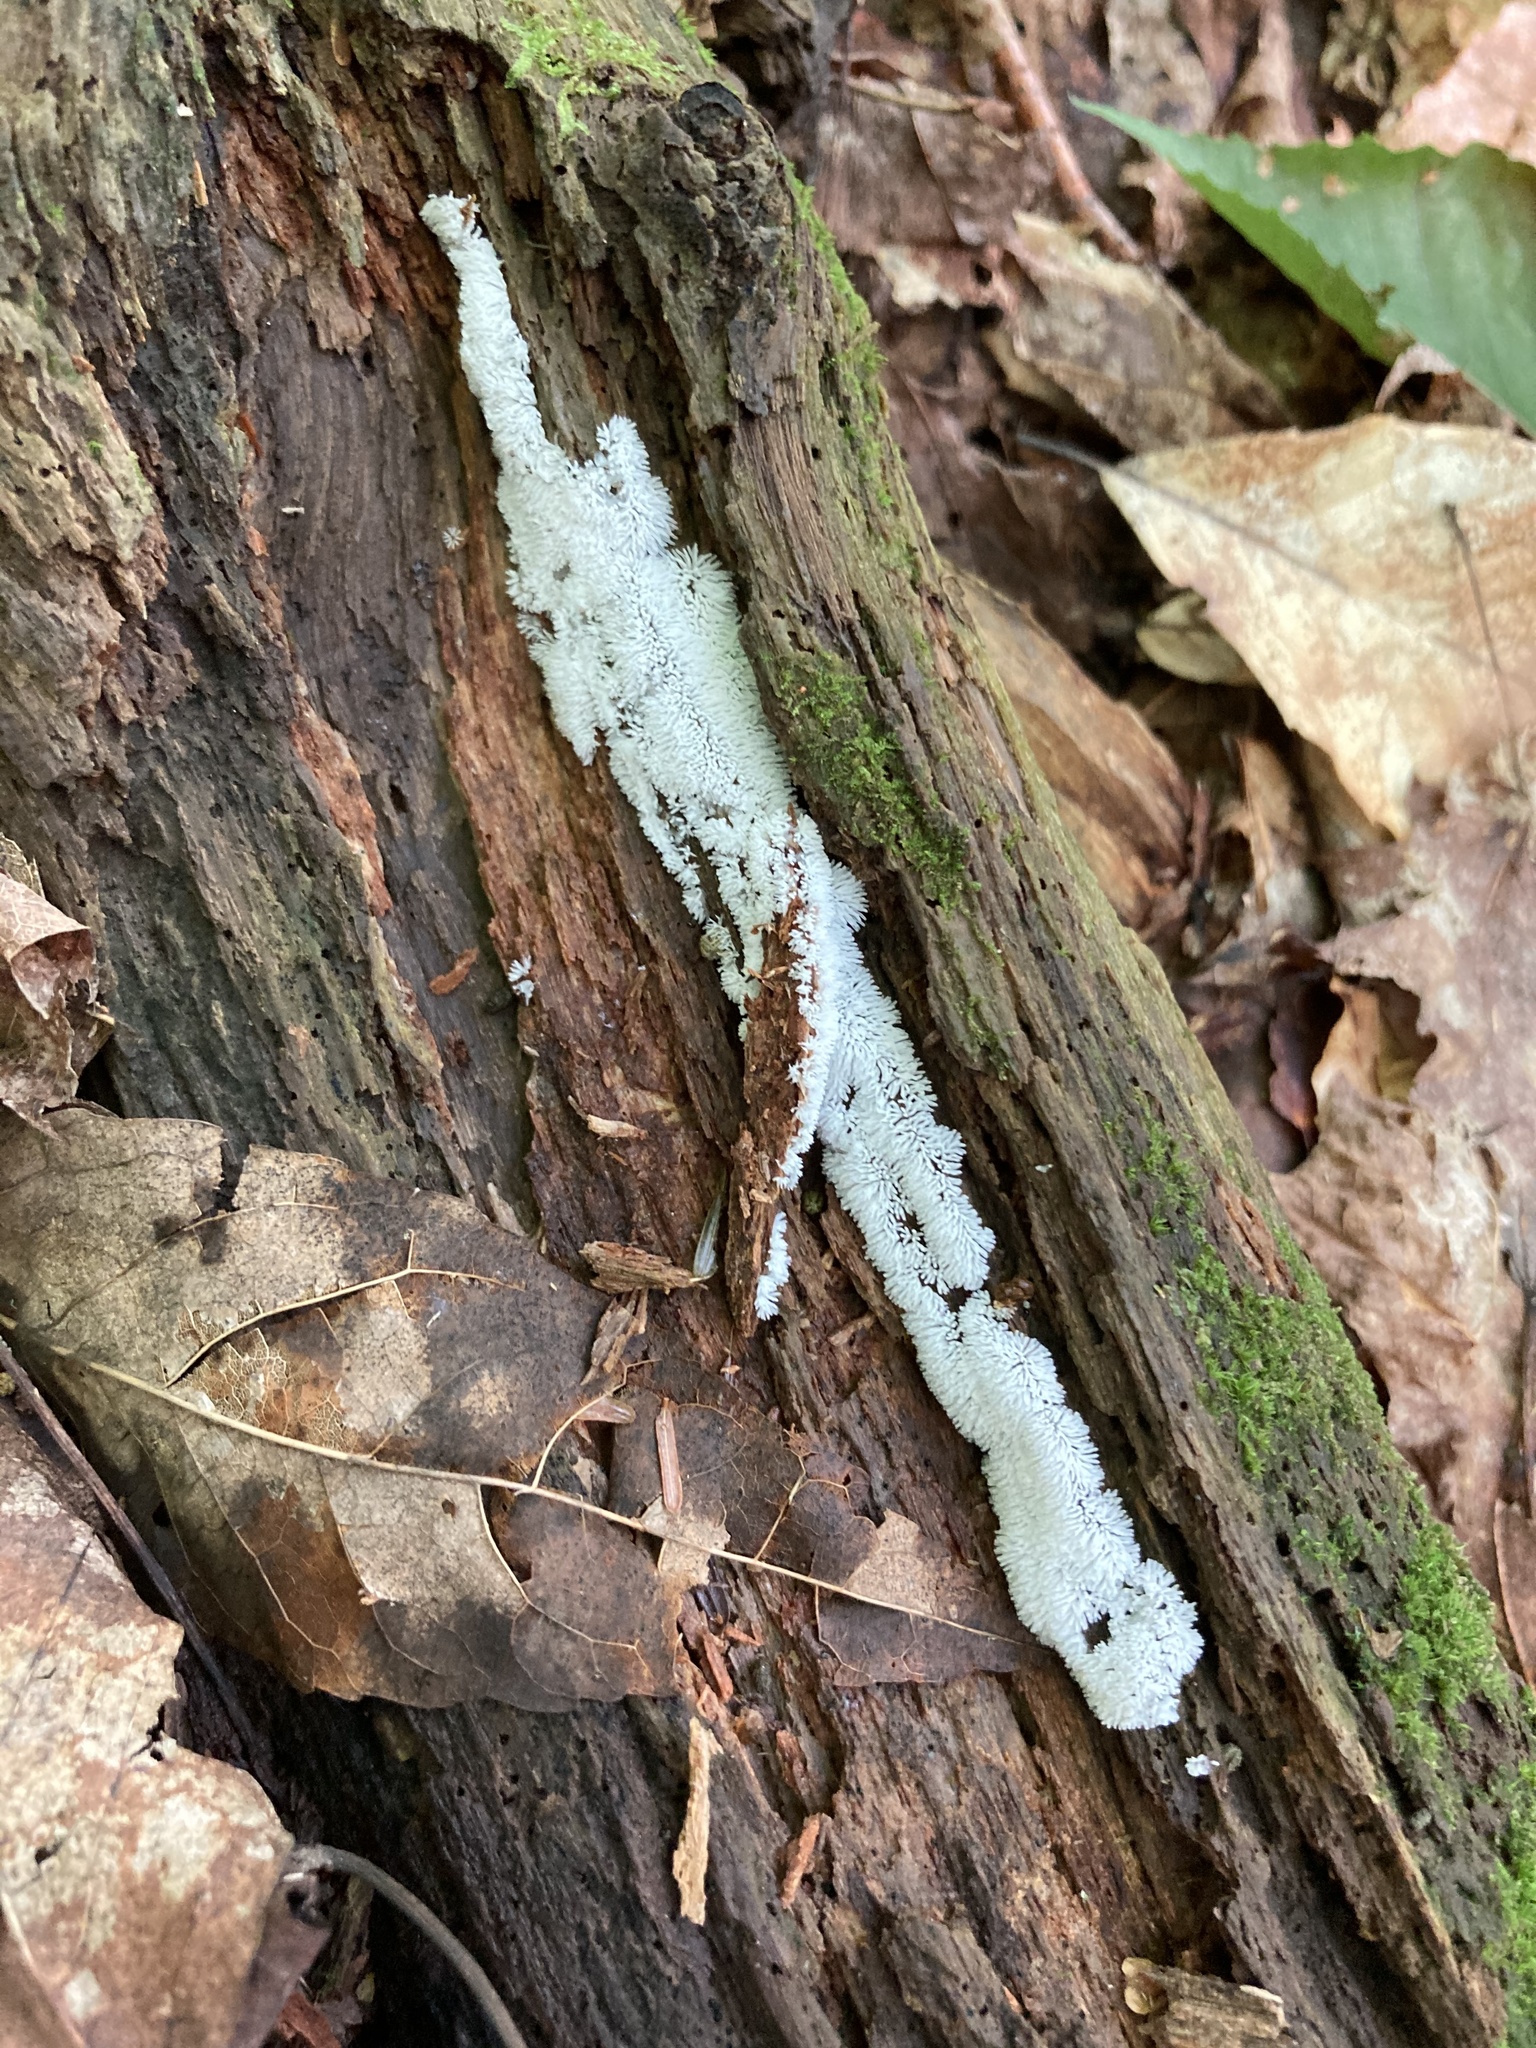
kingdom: Protozoa
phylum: Mycetozoa
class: Protosteliomycetes
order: Ceratiomyxales
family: Ceratiomyxaceae
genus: Ceratiomyxa
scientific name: Ceratiomyxa fruticulosa
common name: Honeycomb coral slime mold
